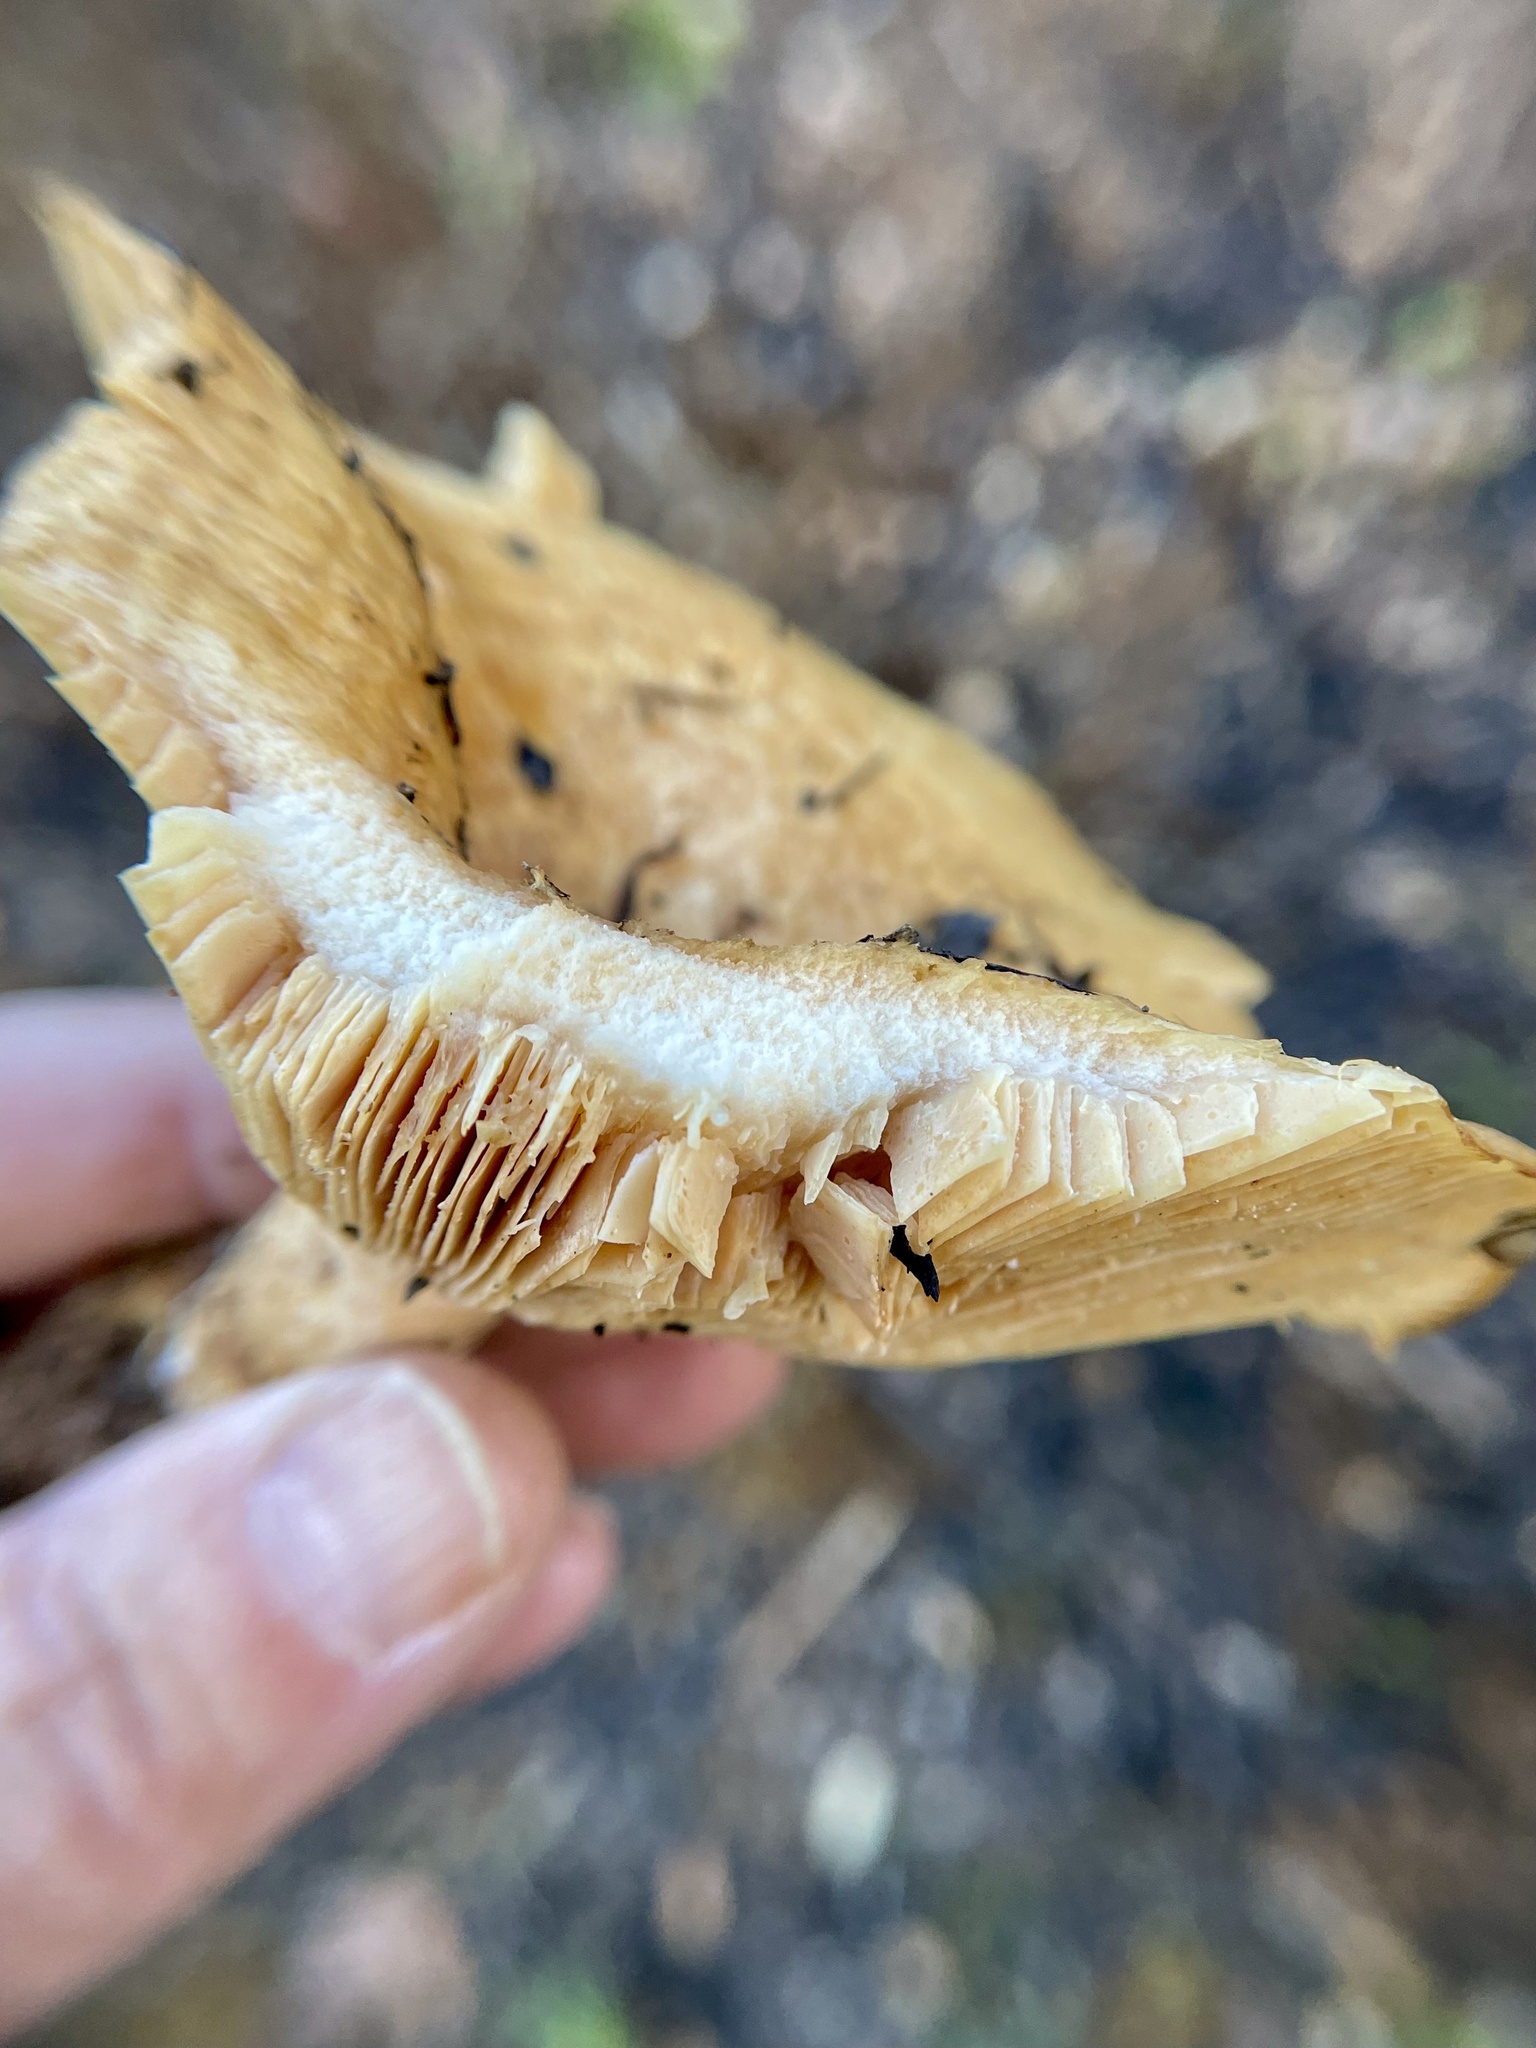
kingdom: Fungi
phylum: Basidiomycota
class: Agaricomycetes
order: Russulales
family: Russulaceae
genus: Lactarius
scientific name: Lactarius alnicola
